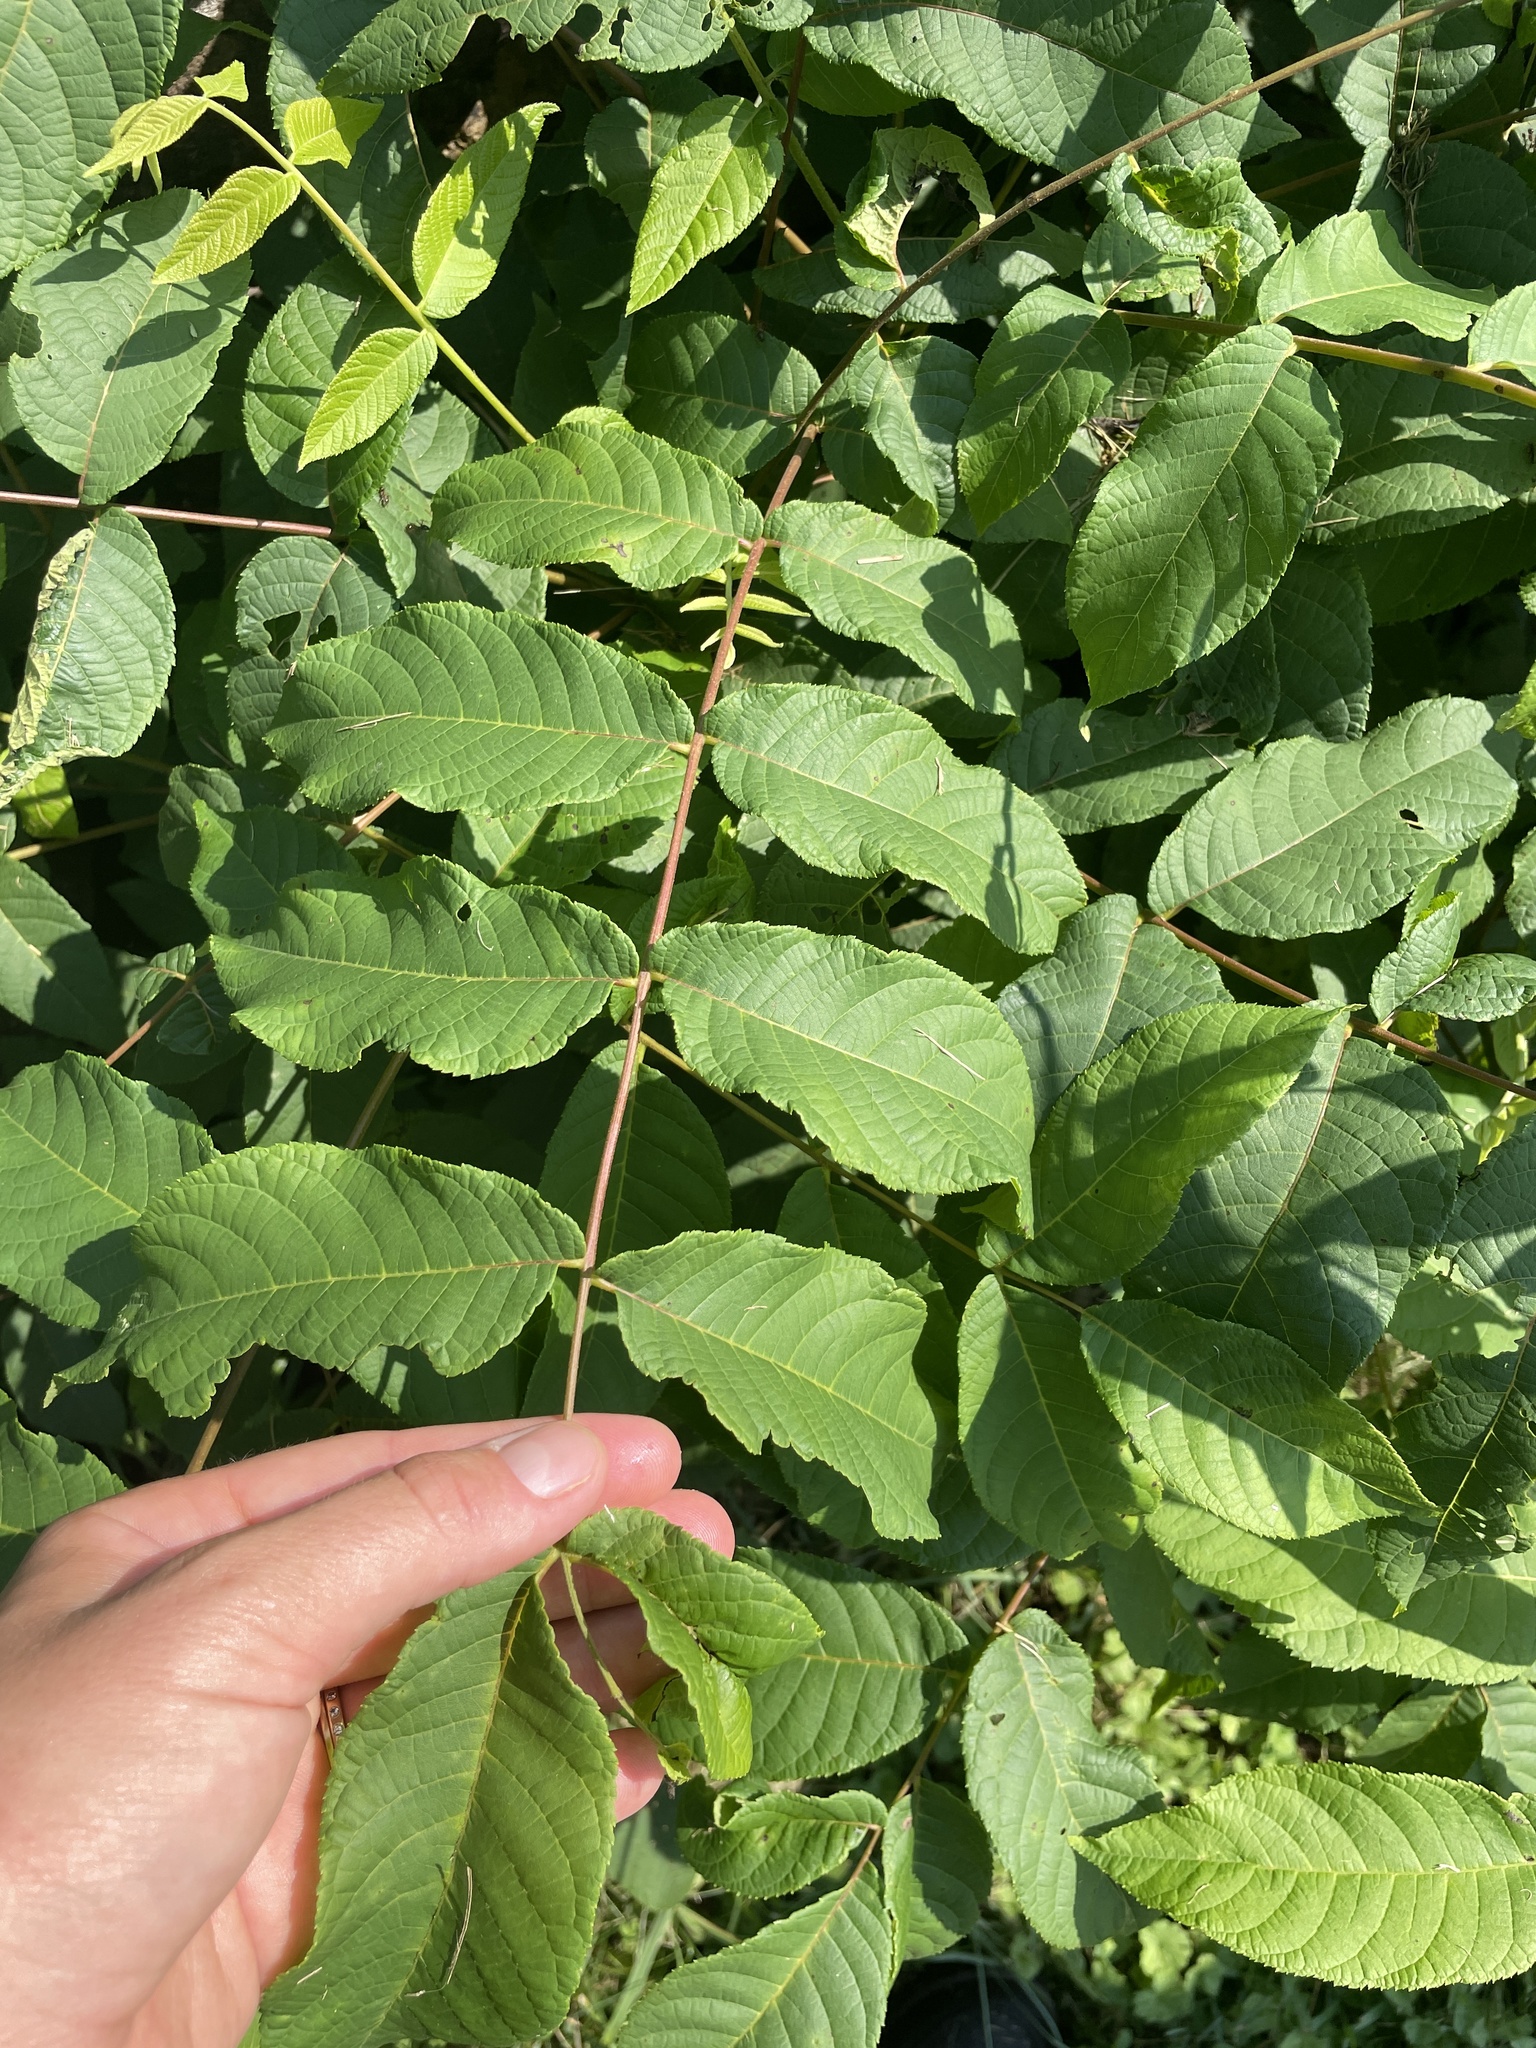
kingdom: Plantae
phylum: Tracheophyta
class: Magnoliopsida
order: Fagales
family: Juglandaceae
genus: Juglans
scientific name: Juglans nigra
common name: Black walnut
